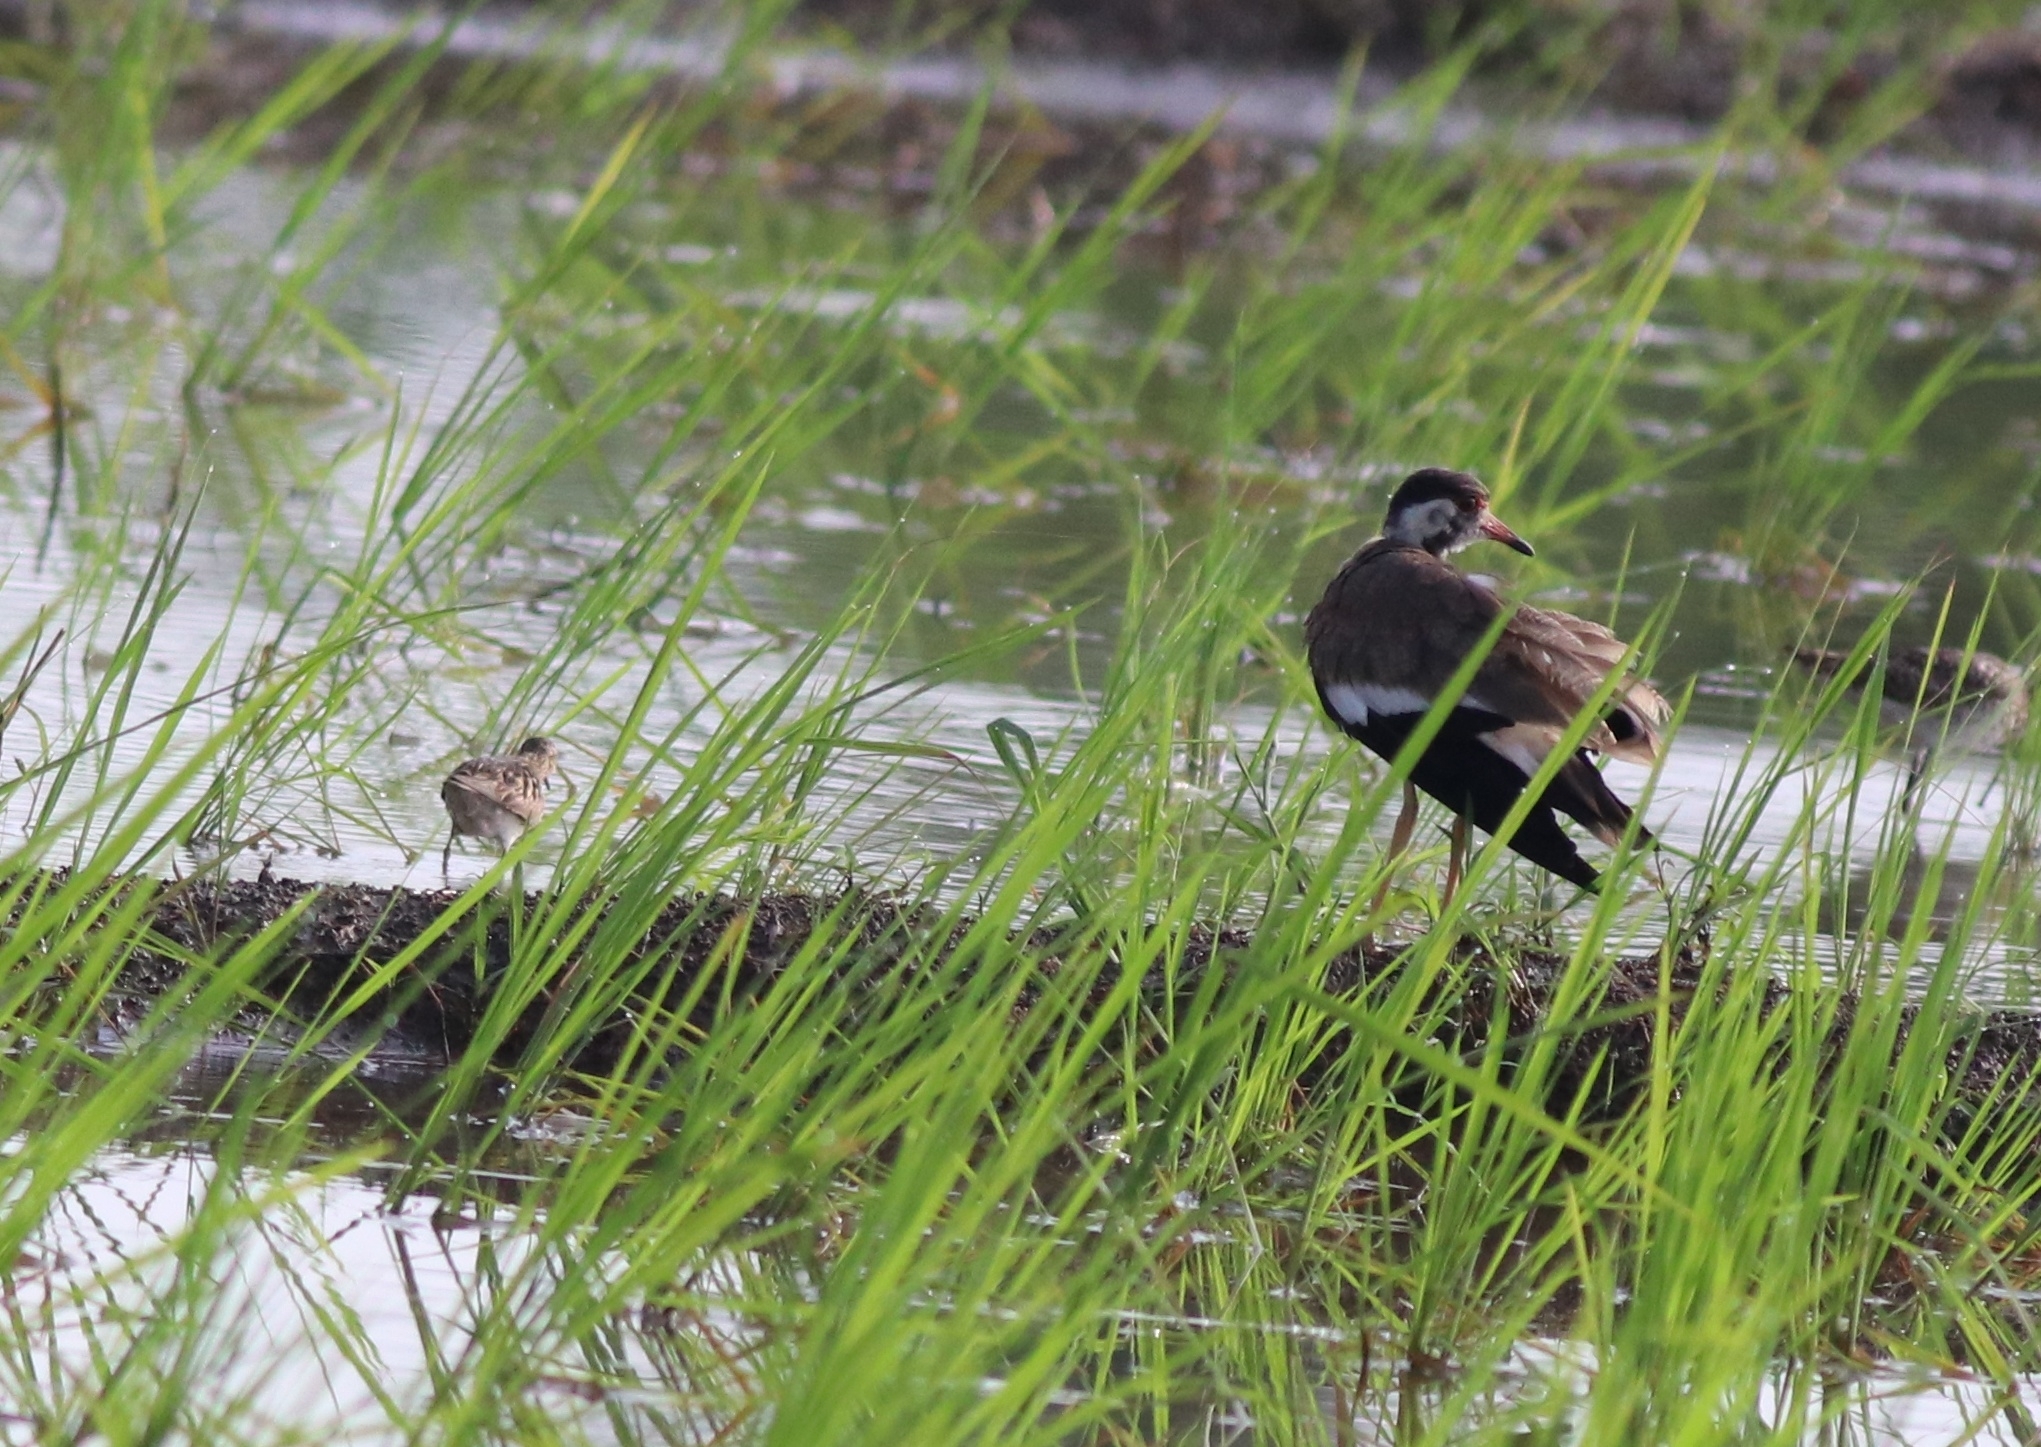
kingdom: Animalia
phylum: Chordata
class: Aves
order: Charadriiformes
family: Charadriidae
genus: Vanellus
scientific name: Vanellus indicus
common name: Red-wattled lapwing
